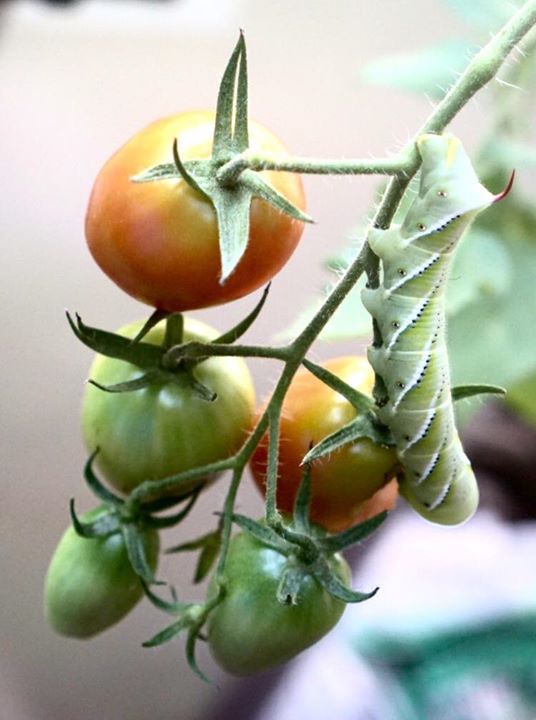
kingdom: Animalia
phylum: Arthropoda
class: Insecta
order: Lepidoptera
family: Sphingidae
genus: Manduca
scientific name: Manduca sexta
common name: Carolina sphinx
